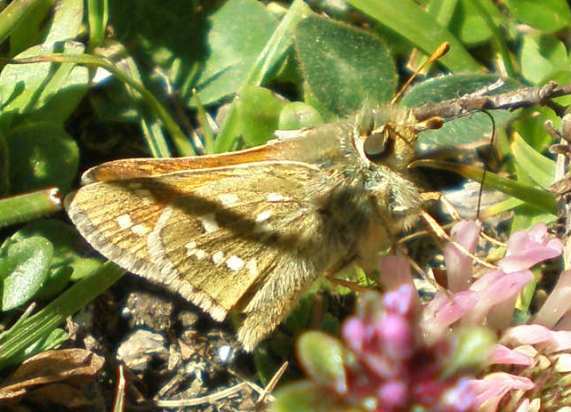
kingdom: Animalia
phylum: Arthropoda
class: Insecta
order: Lepidoptera
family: Hesperiidae
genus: Hesperia
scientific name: Hesperia comma
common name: Common branded skipper
